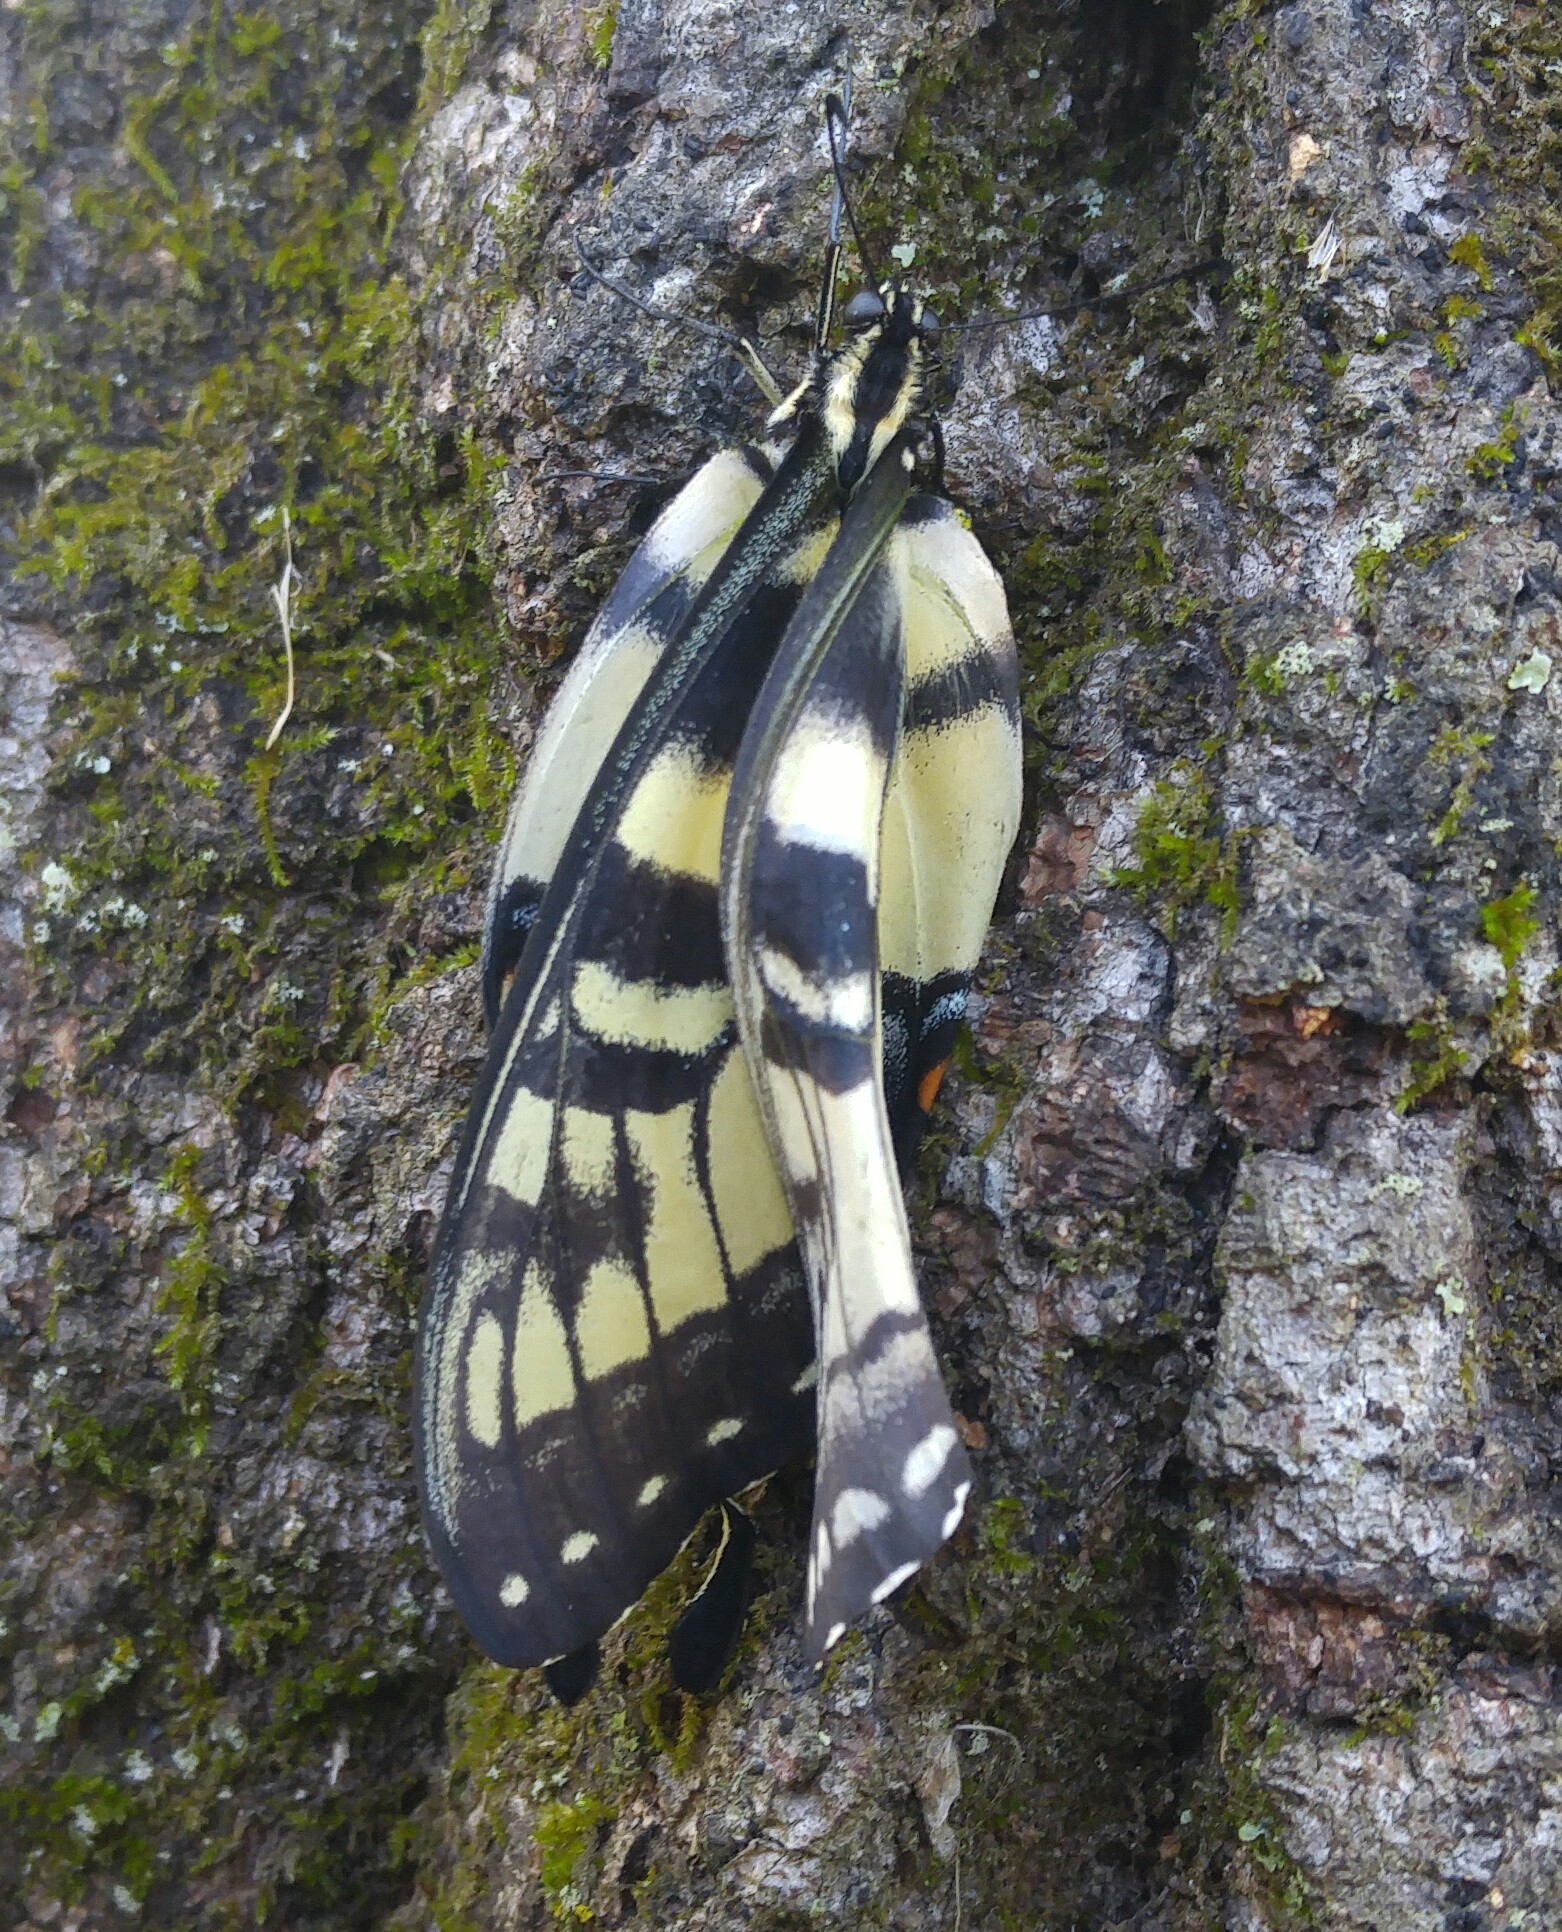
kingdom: Animalia
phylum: Arthropoda
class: Insecta
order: Lepidoptera
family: Papilionidae
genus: Papilio
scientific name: Papilio glaucus
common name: Tiger swallowtail
